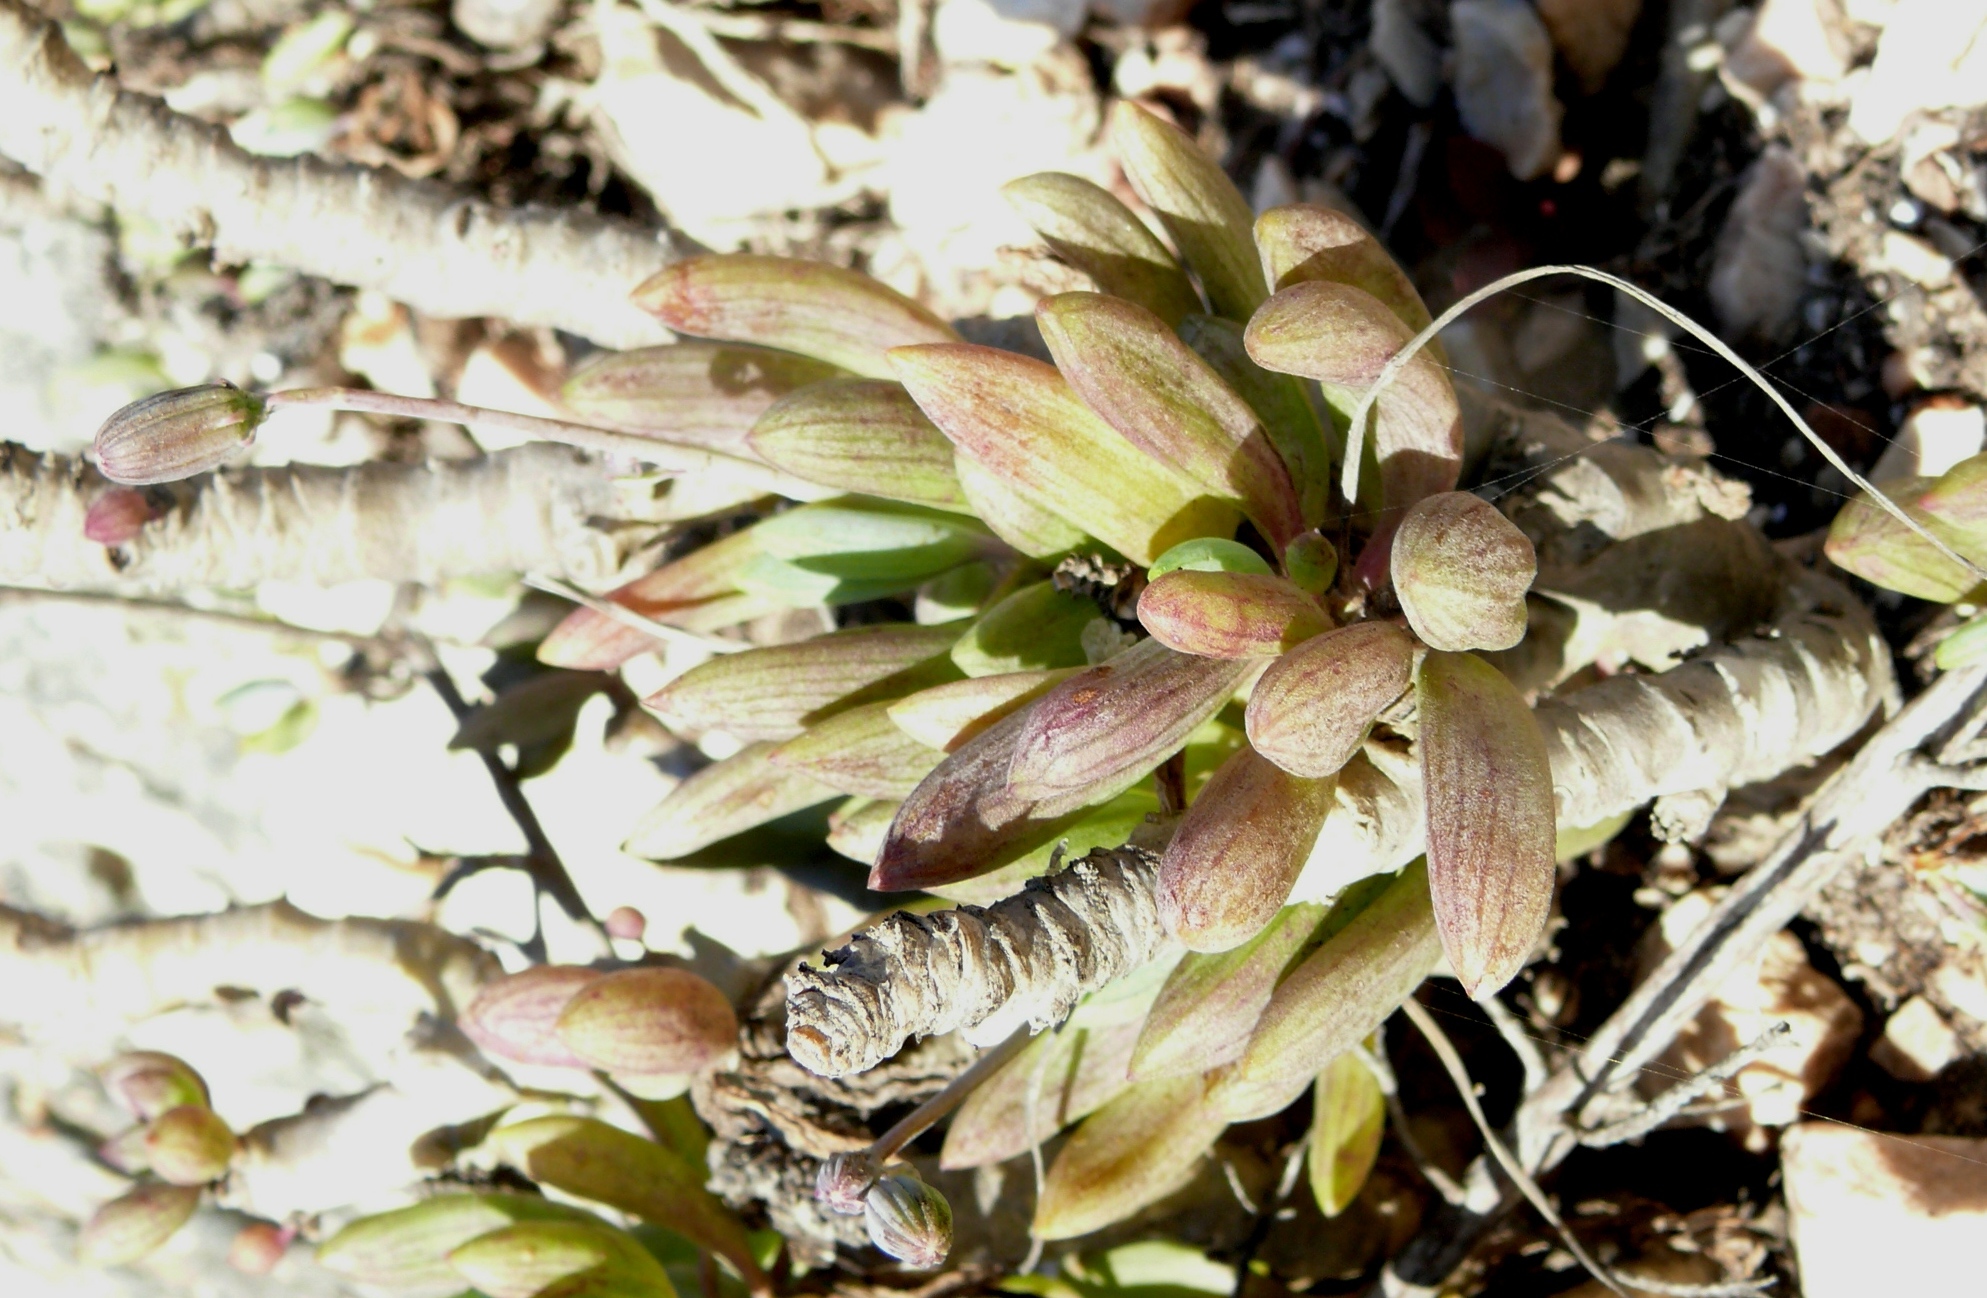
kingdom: Plantae
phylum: Tracheophyta
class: Magnoliopsida
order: Asterales
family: Asteraceae
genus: Curio
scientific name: Curio crassulifolius
